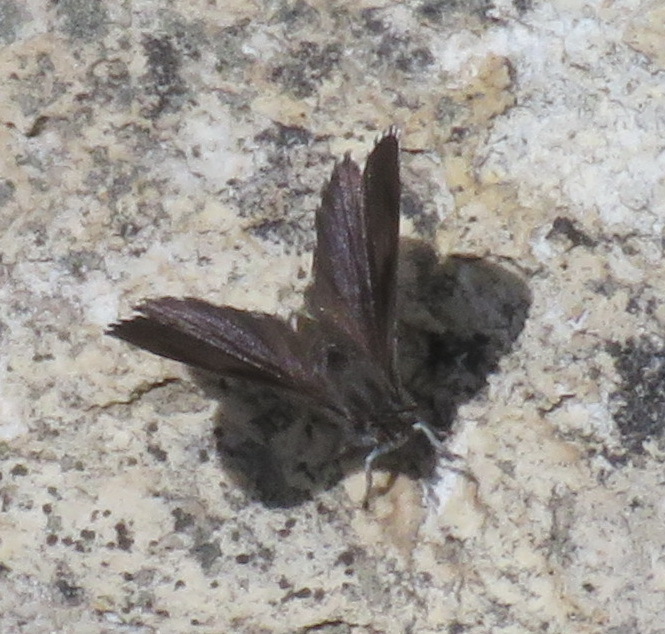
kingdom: Animalia
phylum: Arthropoda
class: Insecta
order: Lepidoptera
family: Lycaenidae
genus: Thestor
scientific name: Thestor penningtoni
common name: Pennington's skolly
